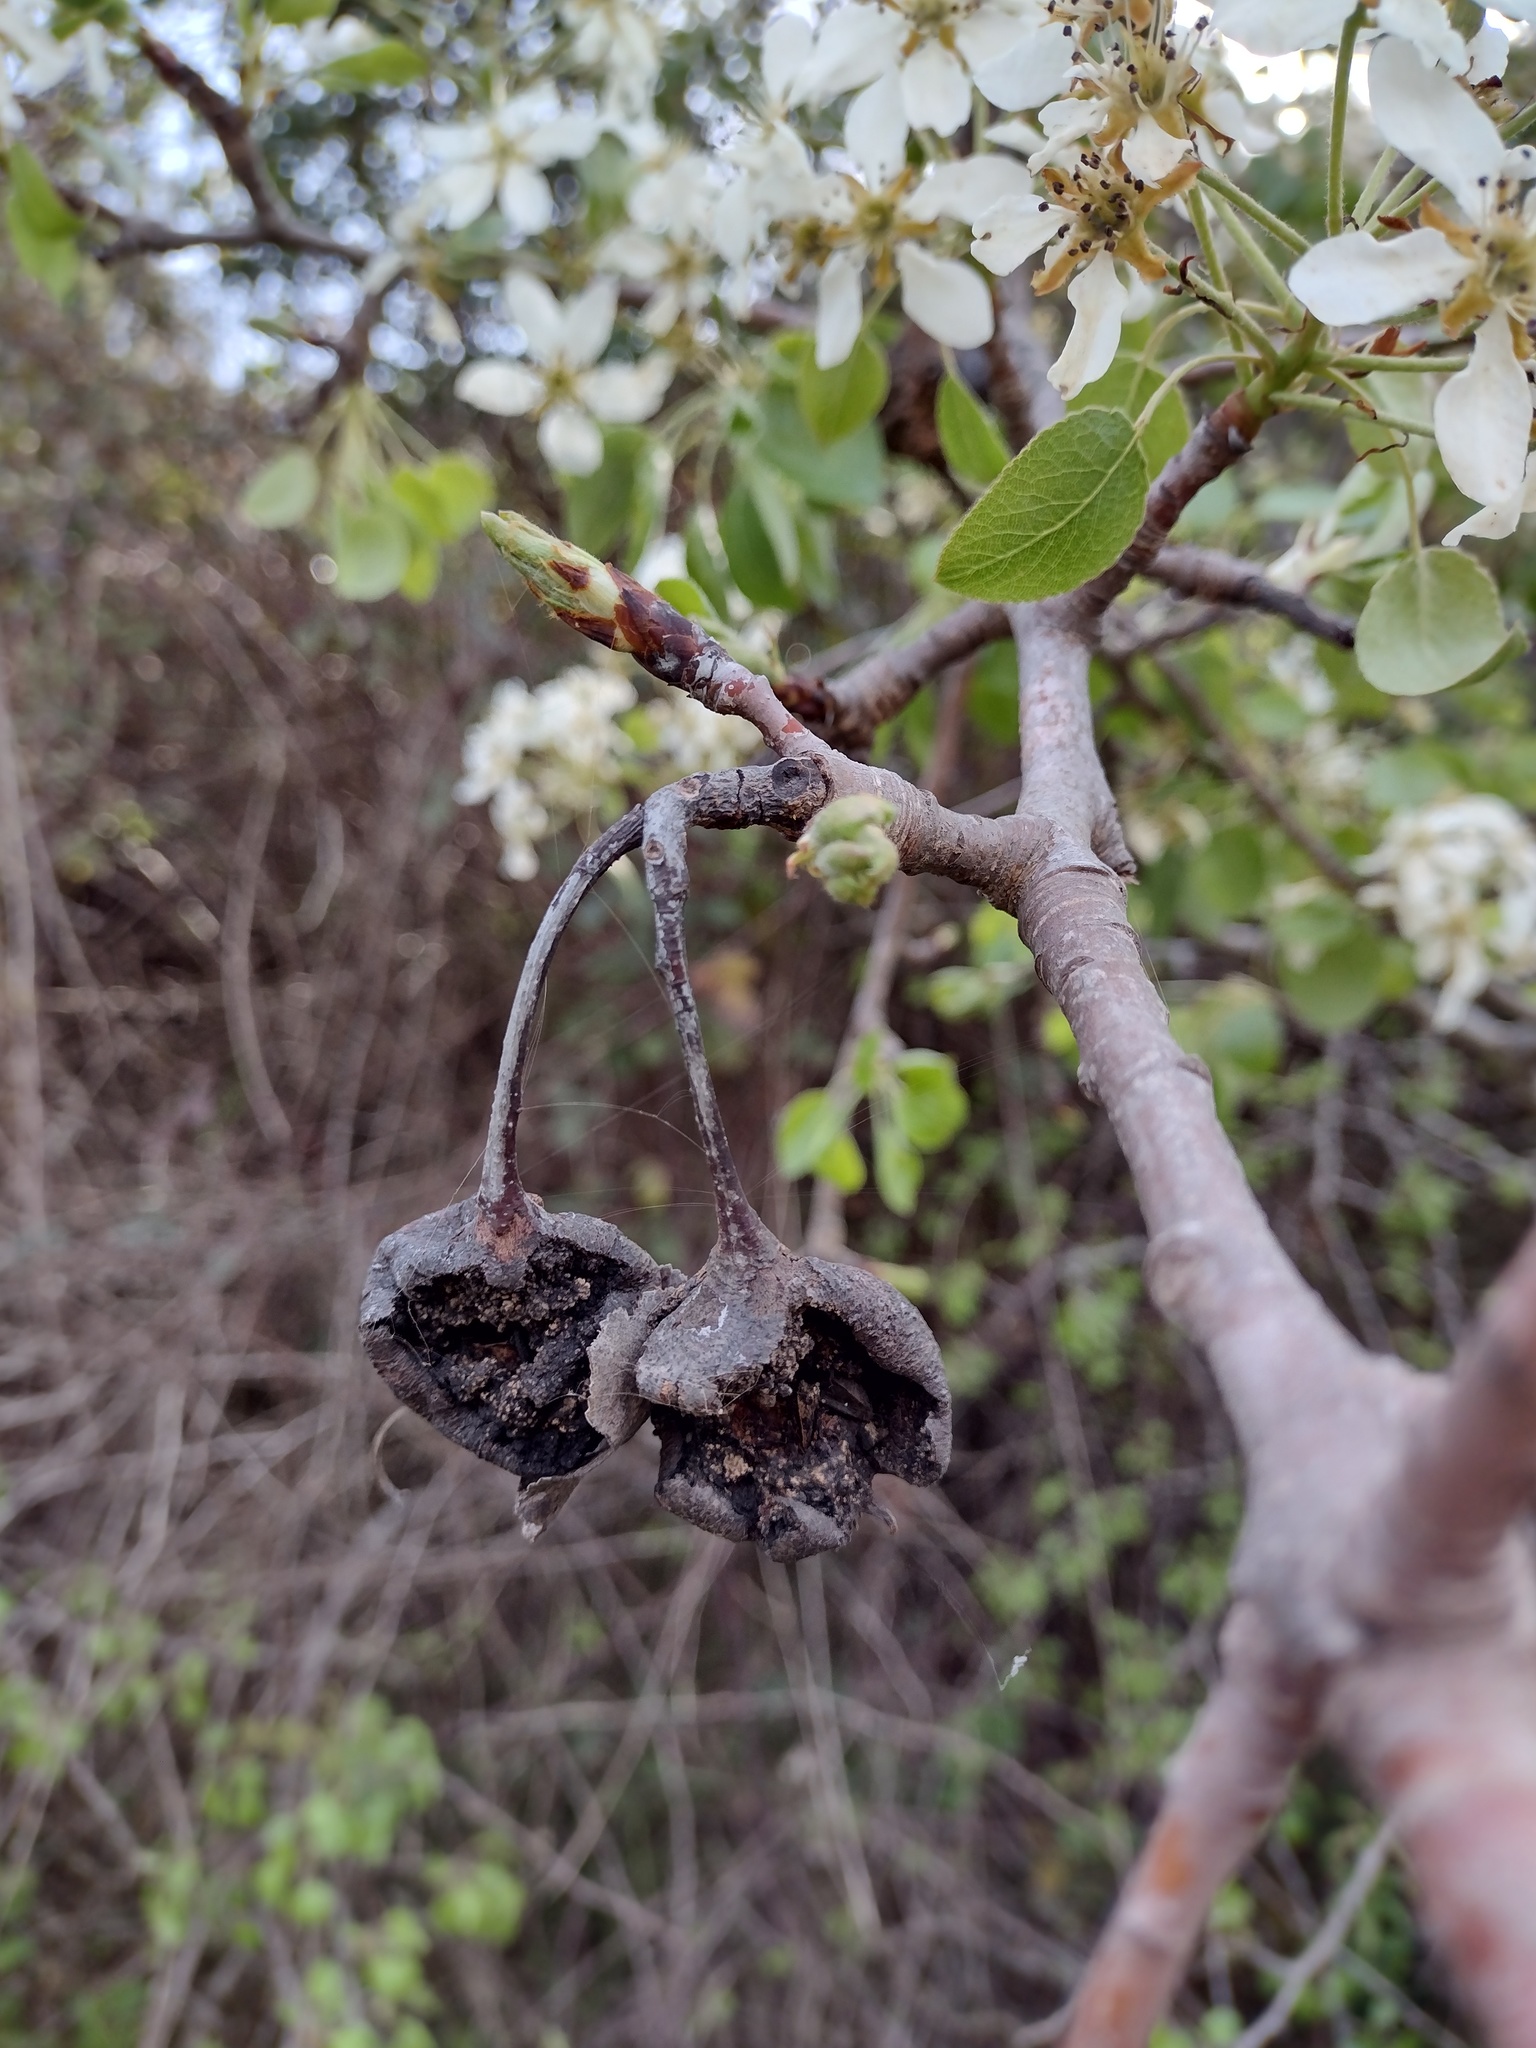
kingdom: Plantae
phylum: Tracheophyta
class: Magnoliopsida
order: Rosales
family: Rosaceae
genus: Pyrus
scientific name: Pyrus bourgaeana
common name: Iberian pear
